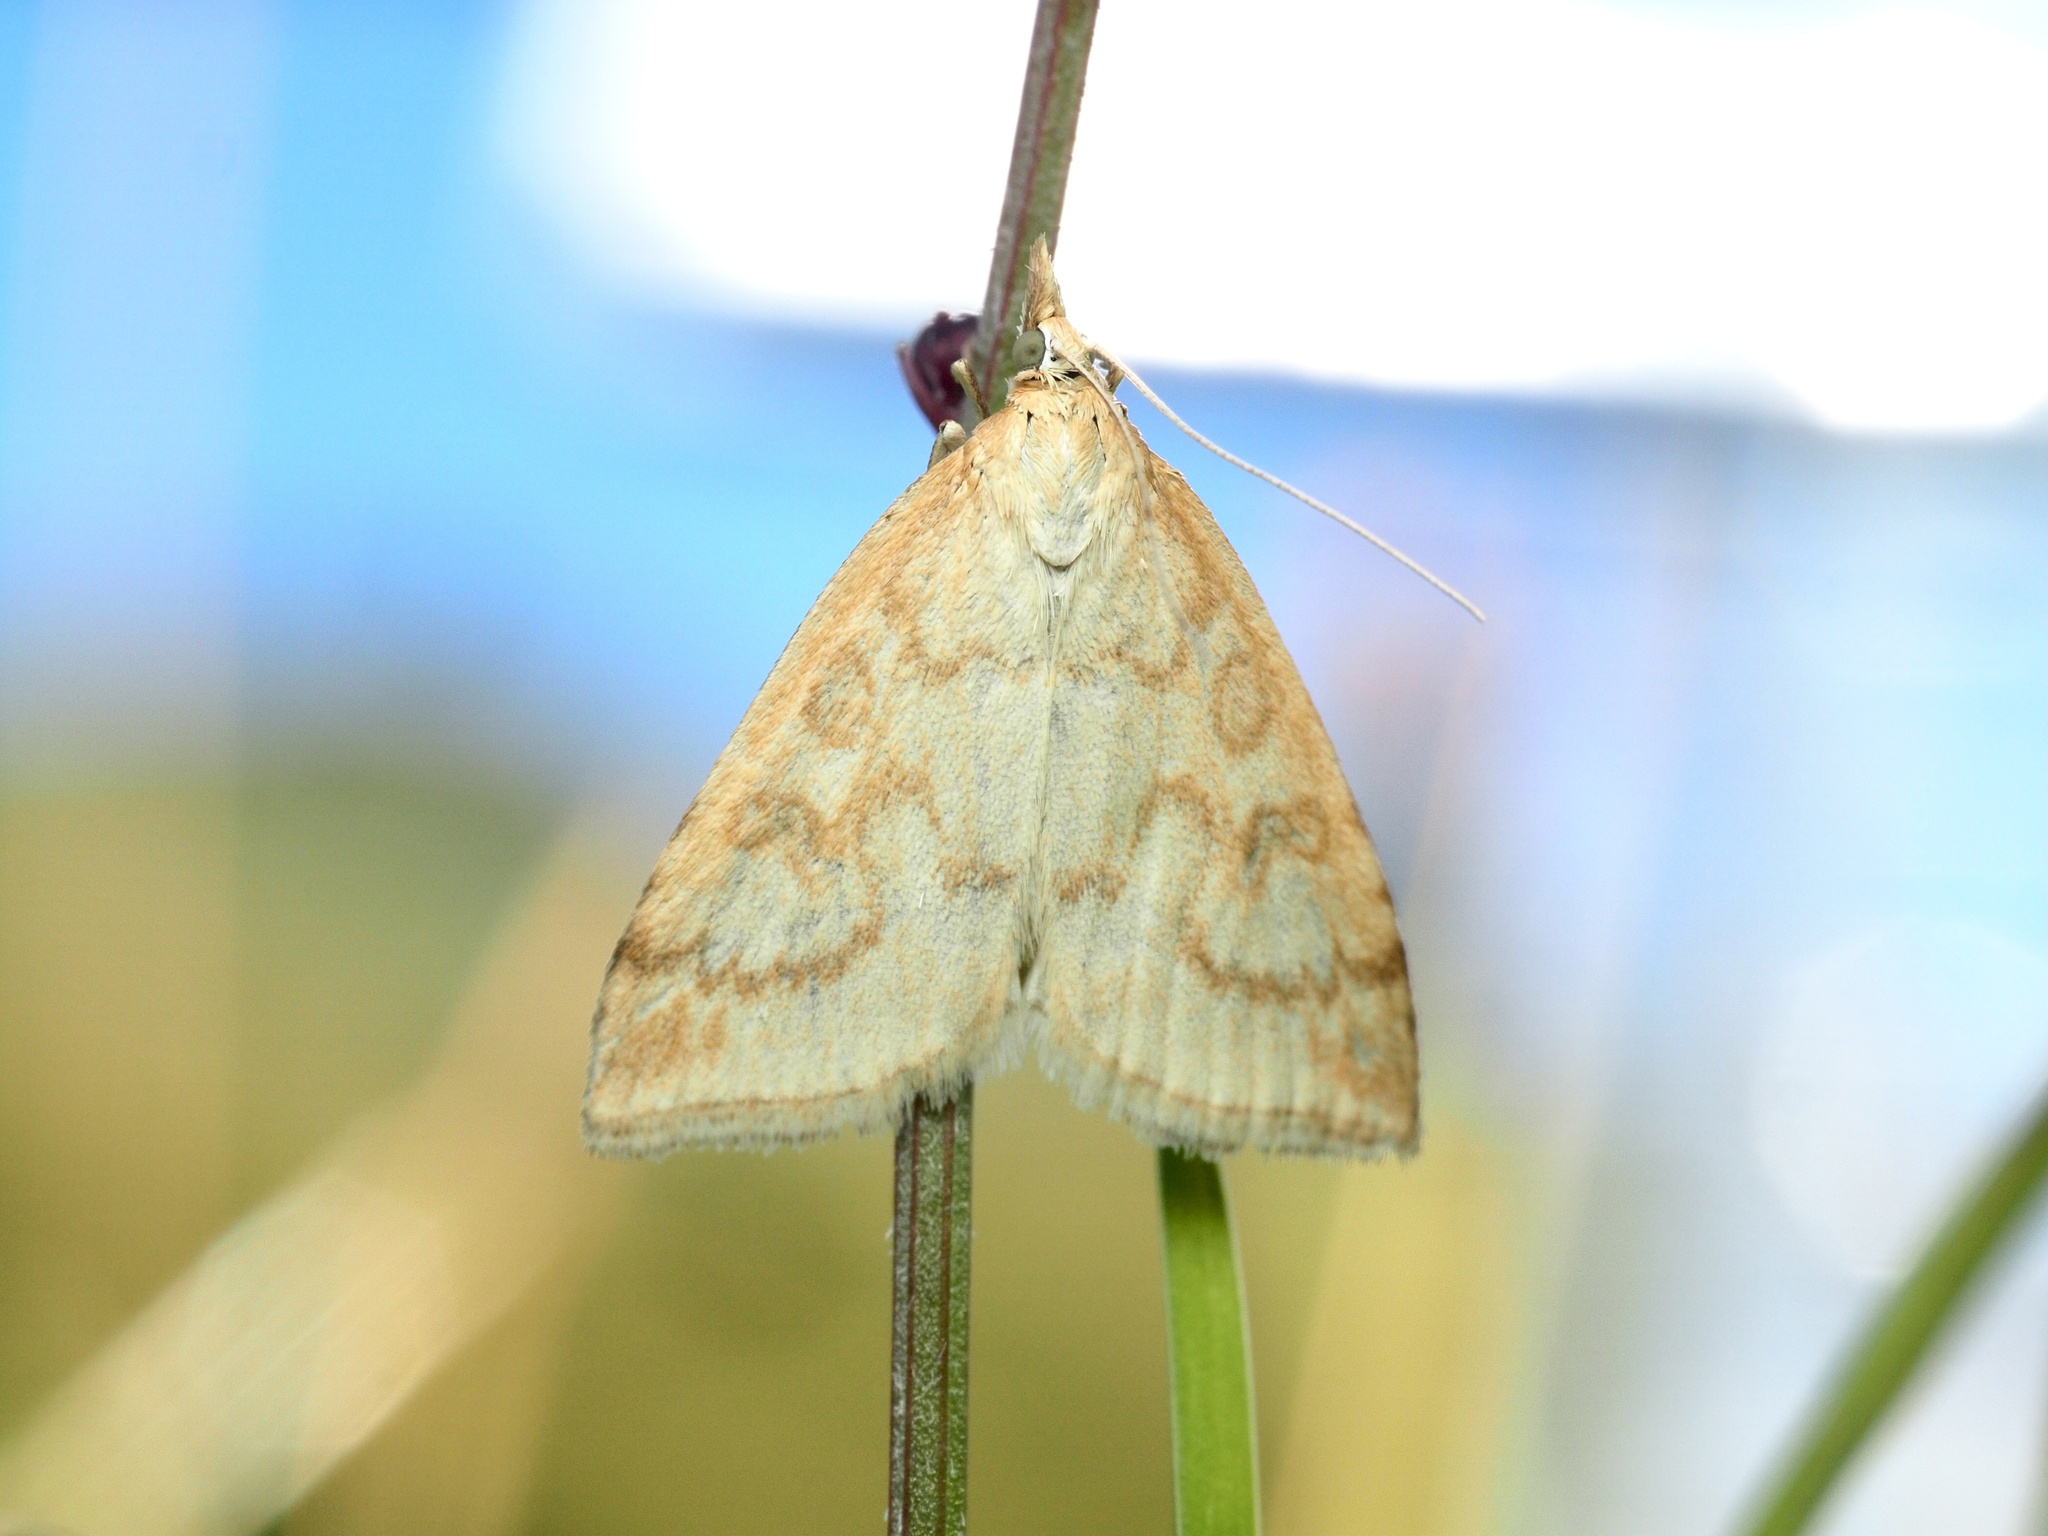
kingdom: Animalia
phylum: Arthropoda
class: Insecta
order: Lepidoptera
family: Crambidae
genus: Udea
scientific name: Udea lutealis
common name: Pale straw pearl
